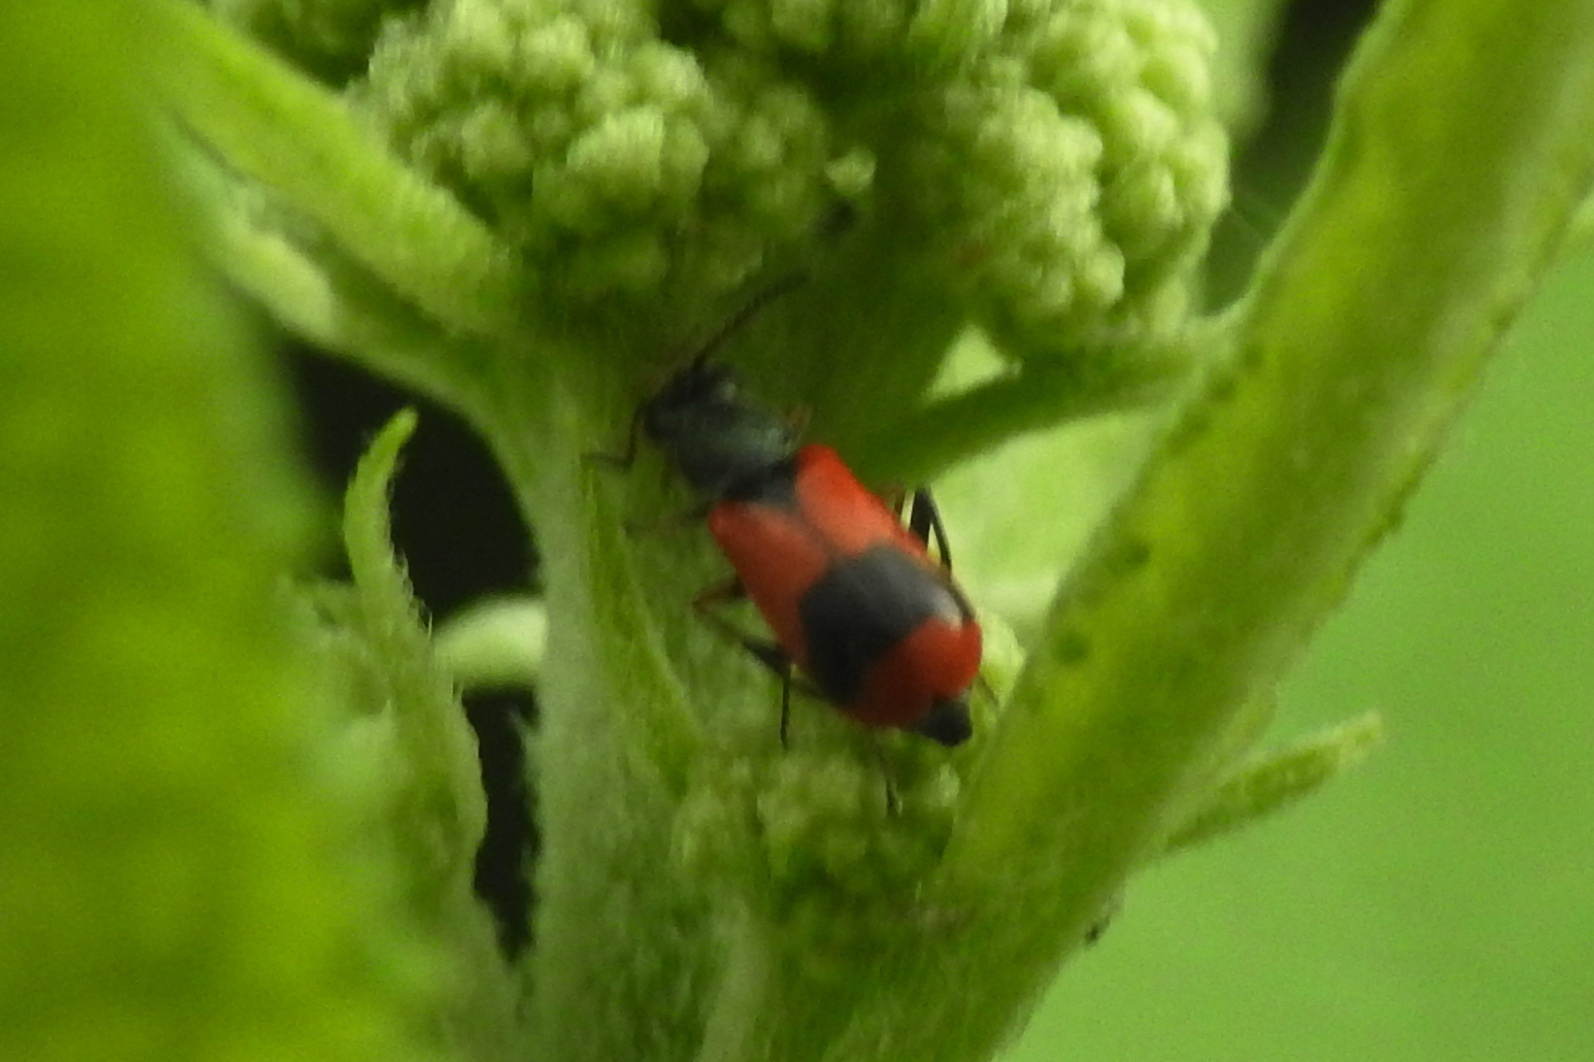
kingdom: Animalia
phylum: Arthropoda
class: Insecta
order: Coleoptera
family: Melyridae
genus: Anthocomus
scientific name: Anthocomus equestris
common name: Black-banded soft-winged flower beetle
